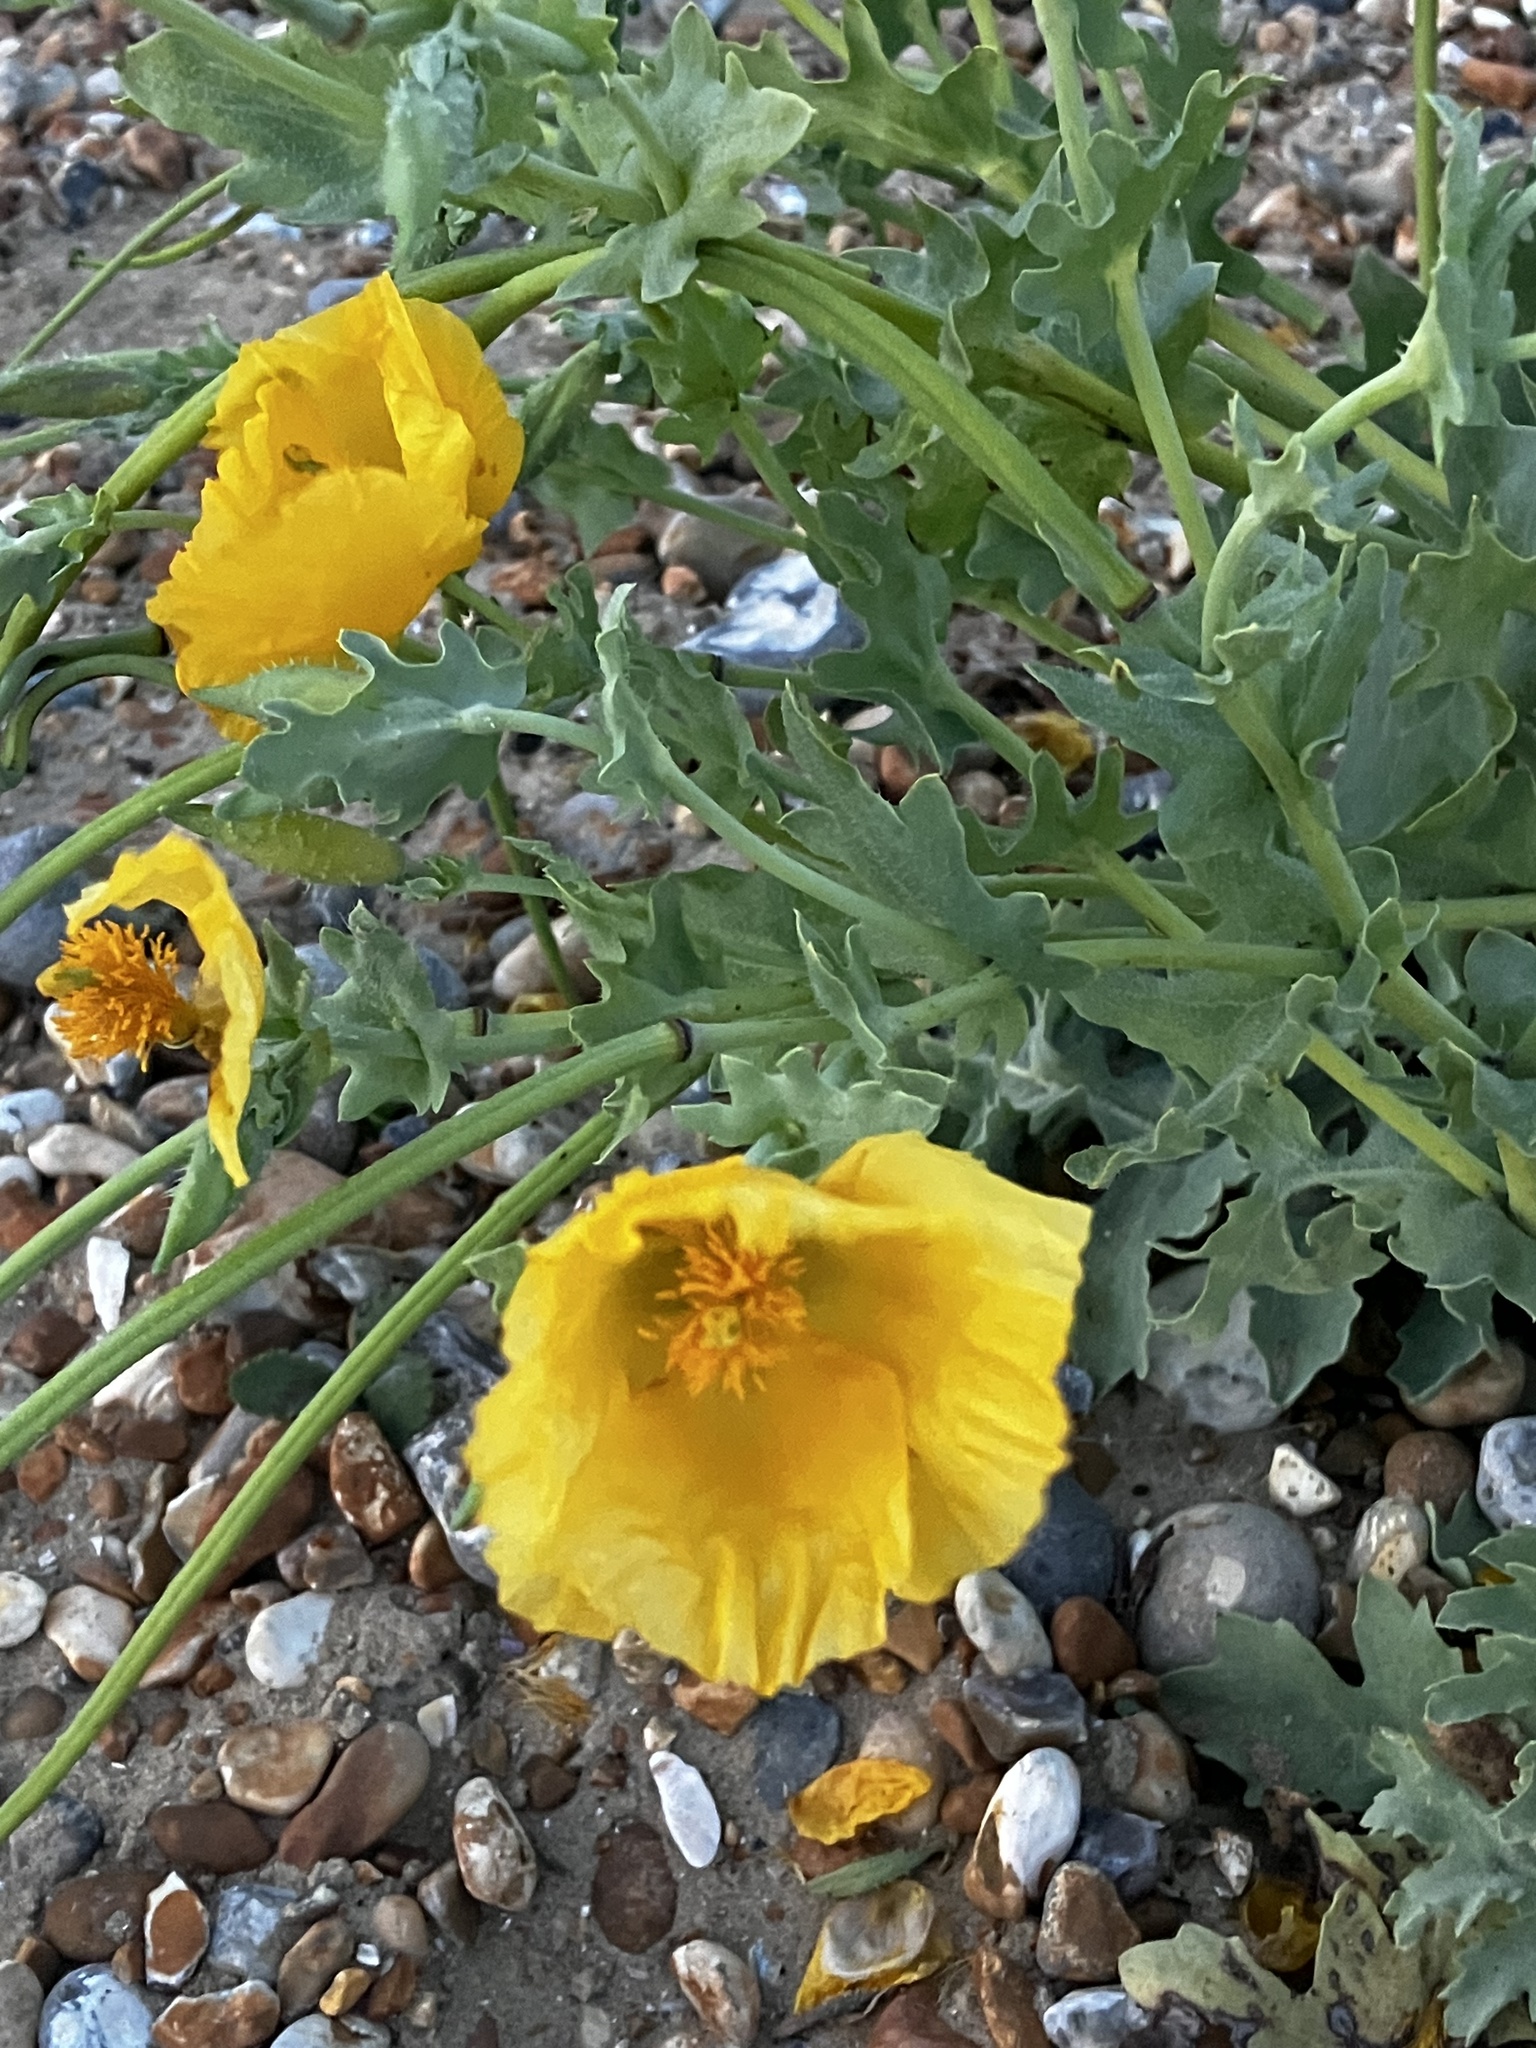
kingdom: Plantae
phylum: Tracheophyta
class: Magnoliopsida
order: Ranunculales
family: Papaveraceae
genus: Glaucium
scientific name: Glaucium flavum
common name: Yellow horned-poppy
